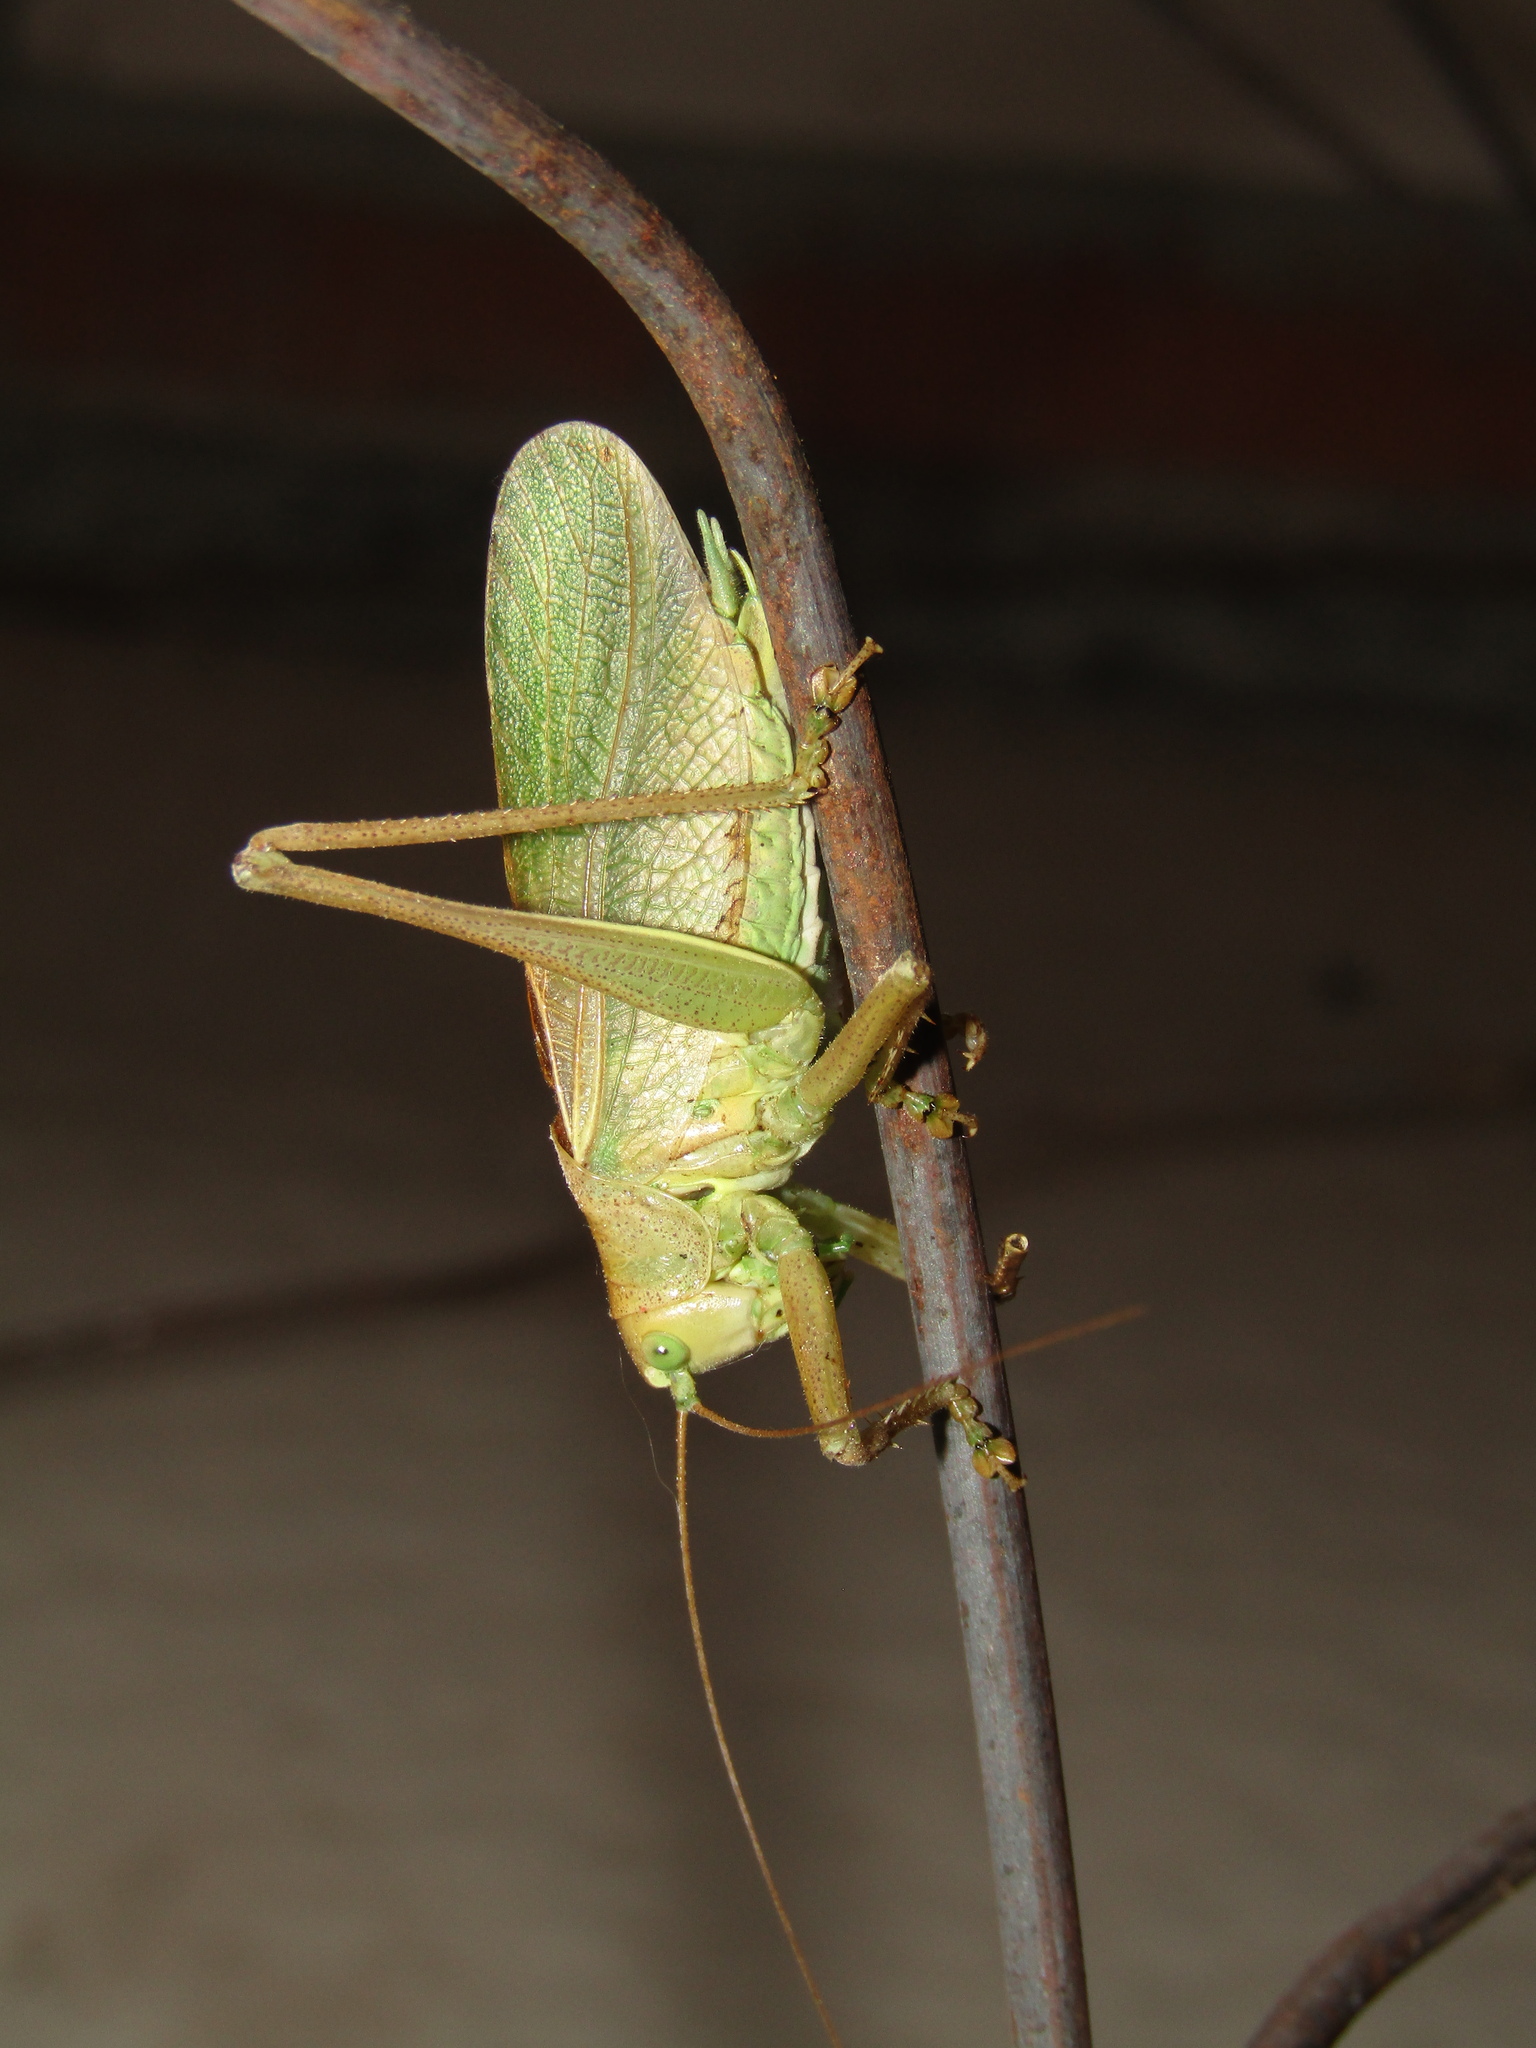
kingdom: Animalia
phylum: Arthropoda
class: Insecta
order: Orthoptera
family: Tettigoniidae
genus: Tettigonia
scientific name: Tettigonia cantans
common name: Upland green bush-cricket
